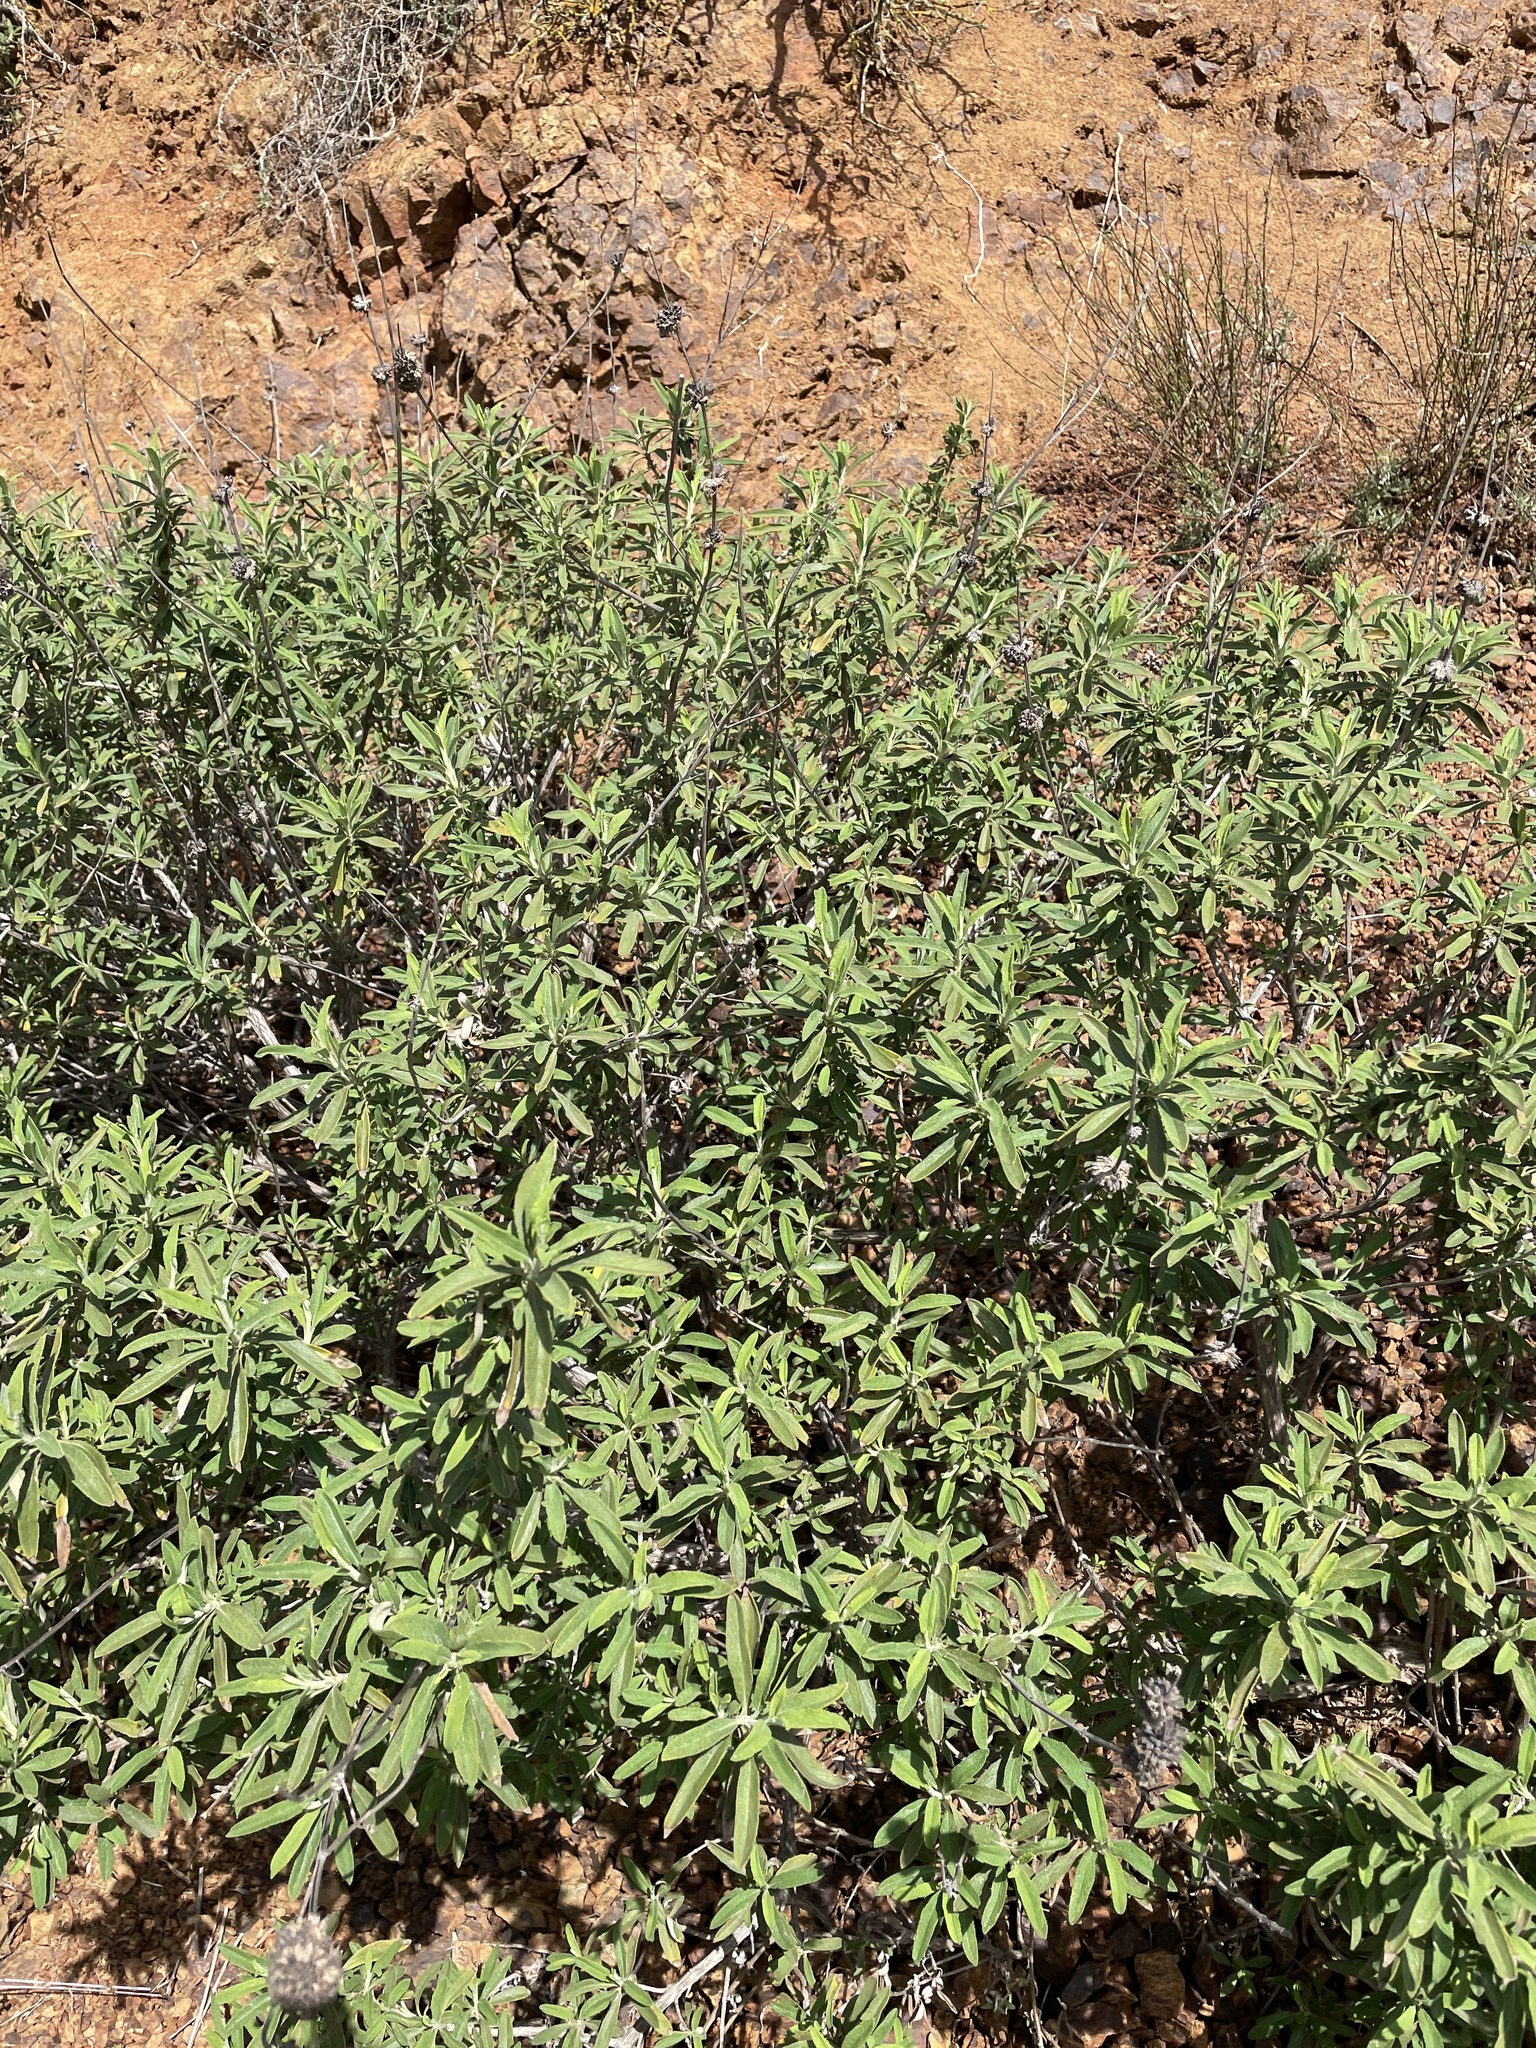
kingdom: Plantae
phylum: Tracheophyta
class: Magnoliopsida
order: Lamiales
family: Lamiaceae
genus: Salvia
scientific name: Salvia mellifera
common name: Black sage
